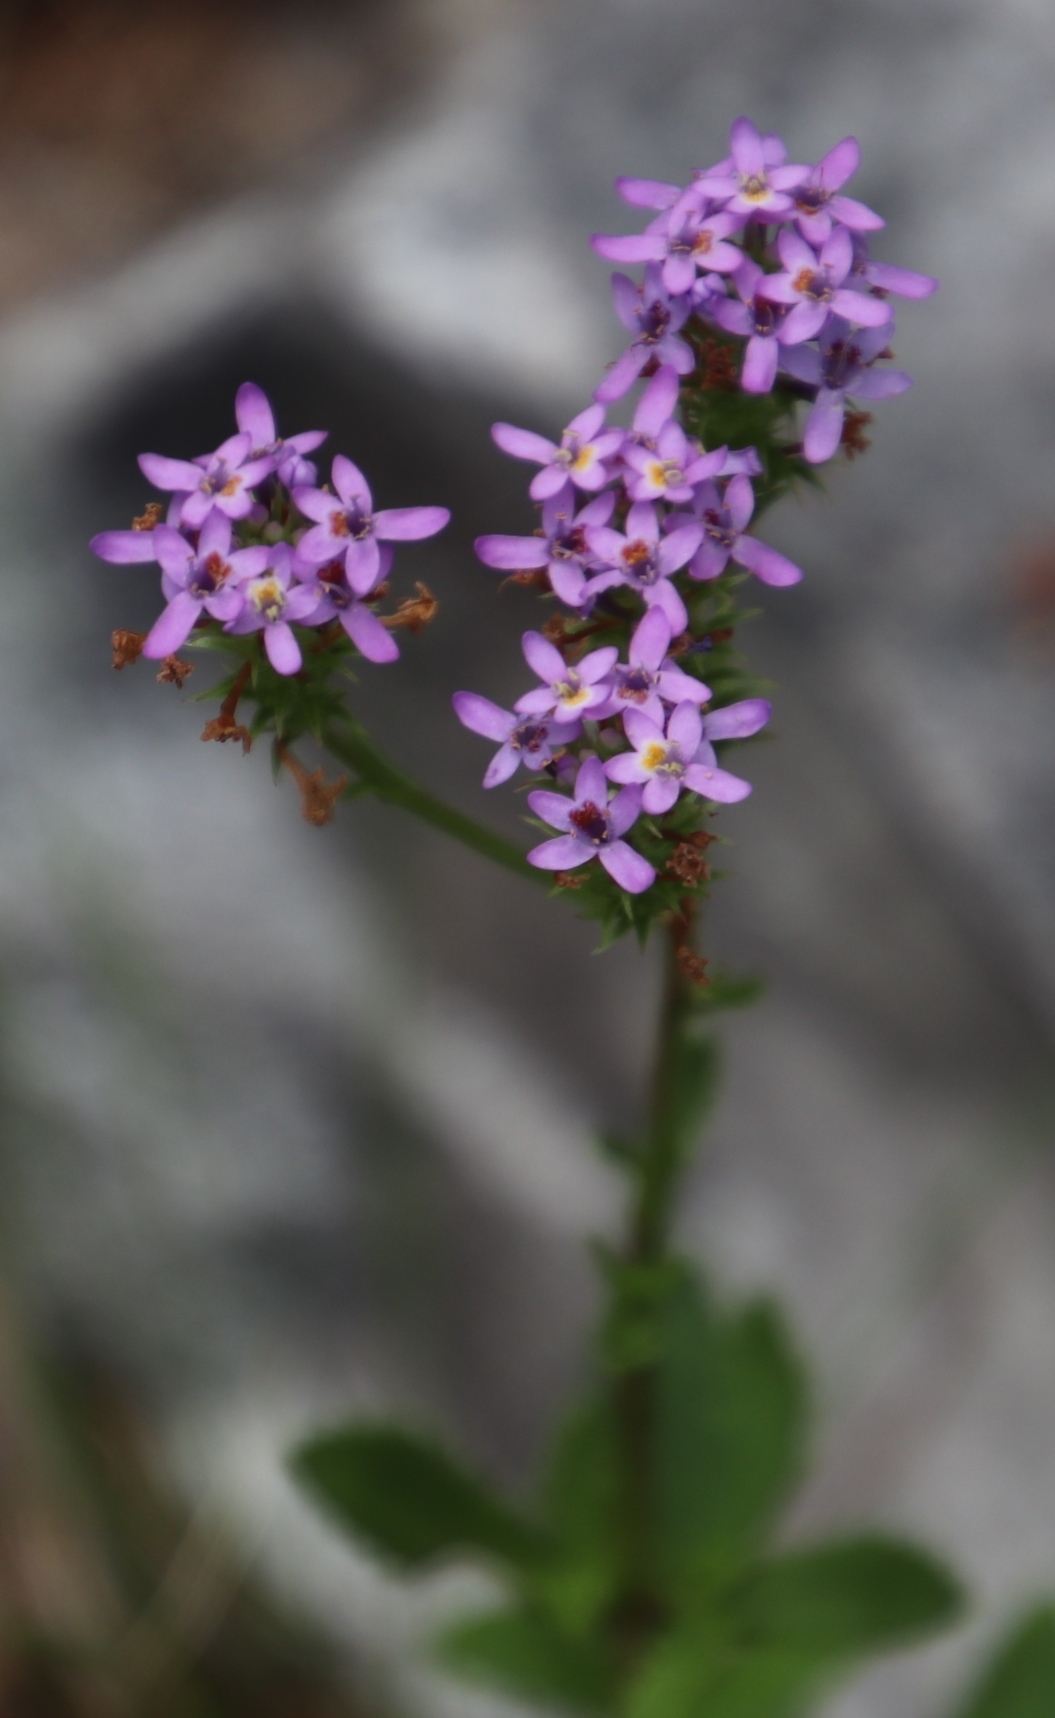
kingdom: Plantae
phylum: Tracheophyta
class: Magnoliopsida
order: Lamiales
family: Scrophulariaceae
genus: Pseudoselago
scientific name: Pseudoselago verbenacea
